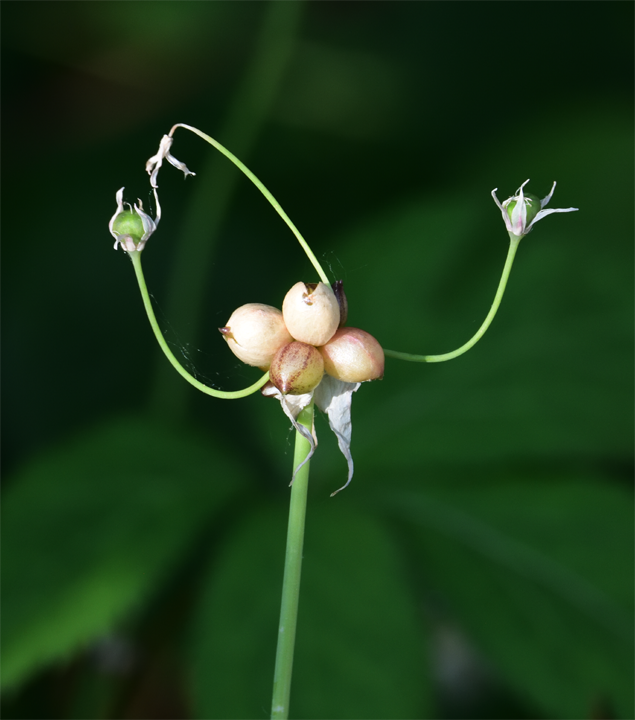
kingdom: Plantae
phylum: Tracheophyta
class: Liliopsida
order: Asparagales
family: Amaryllidaceae
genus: Allium
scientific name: Allium canadense
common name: Meadow garlic
